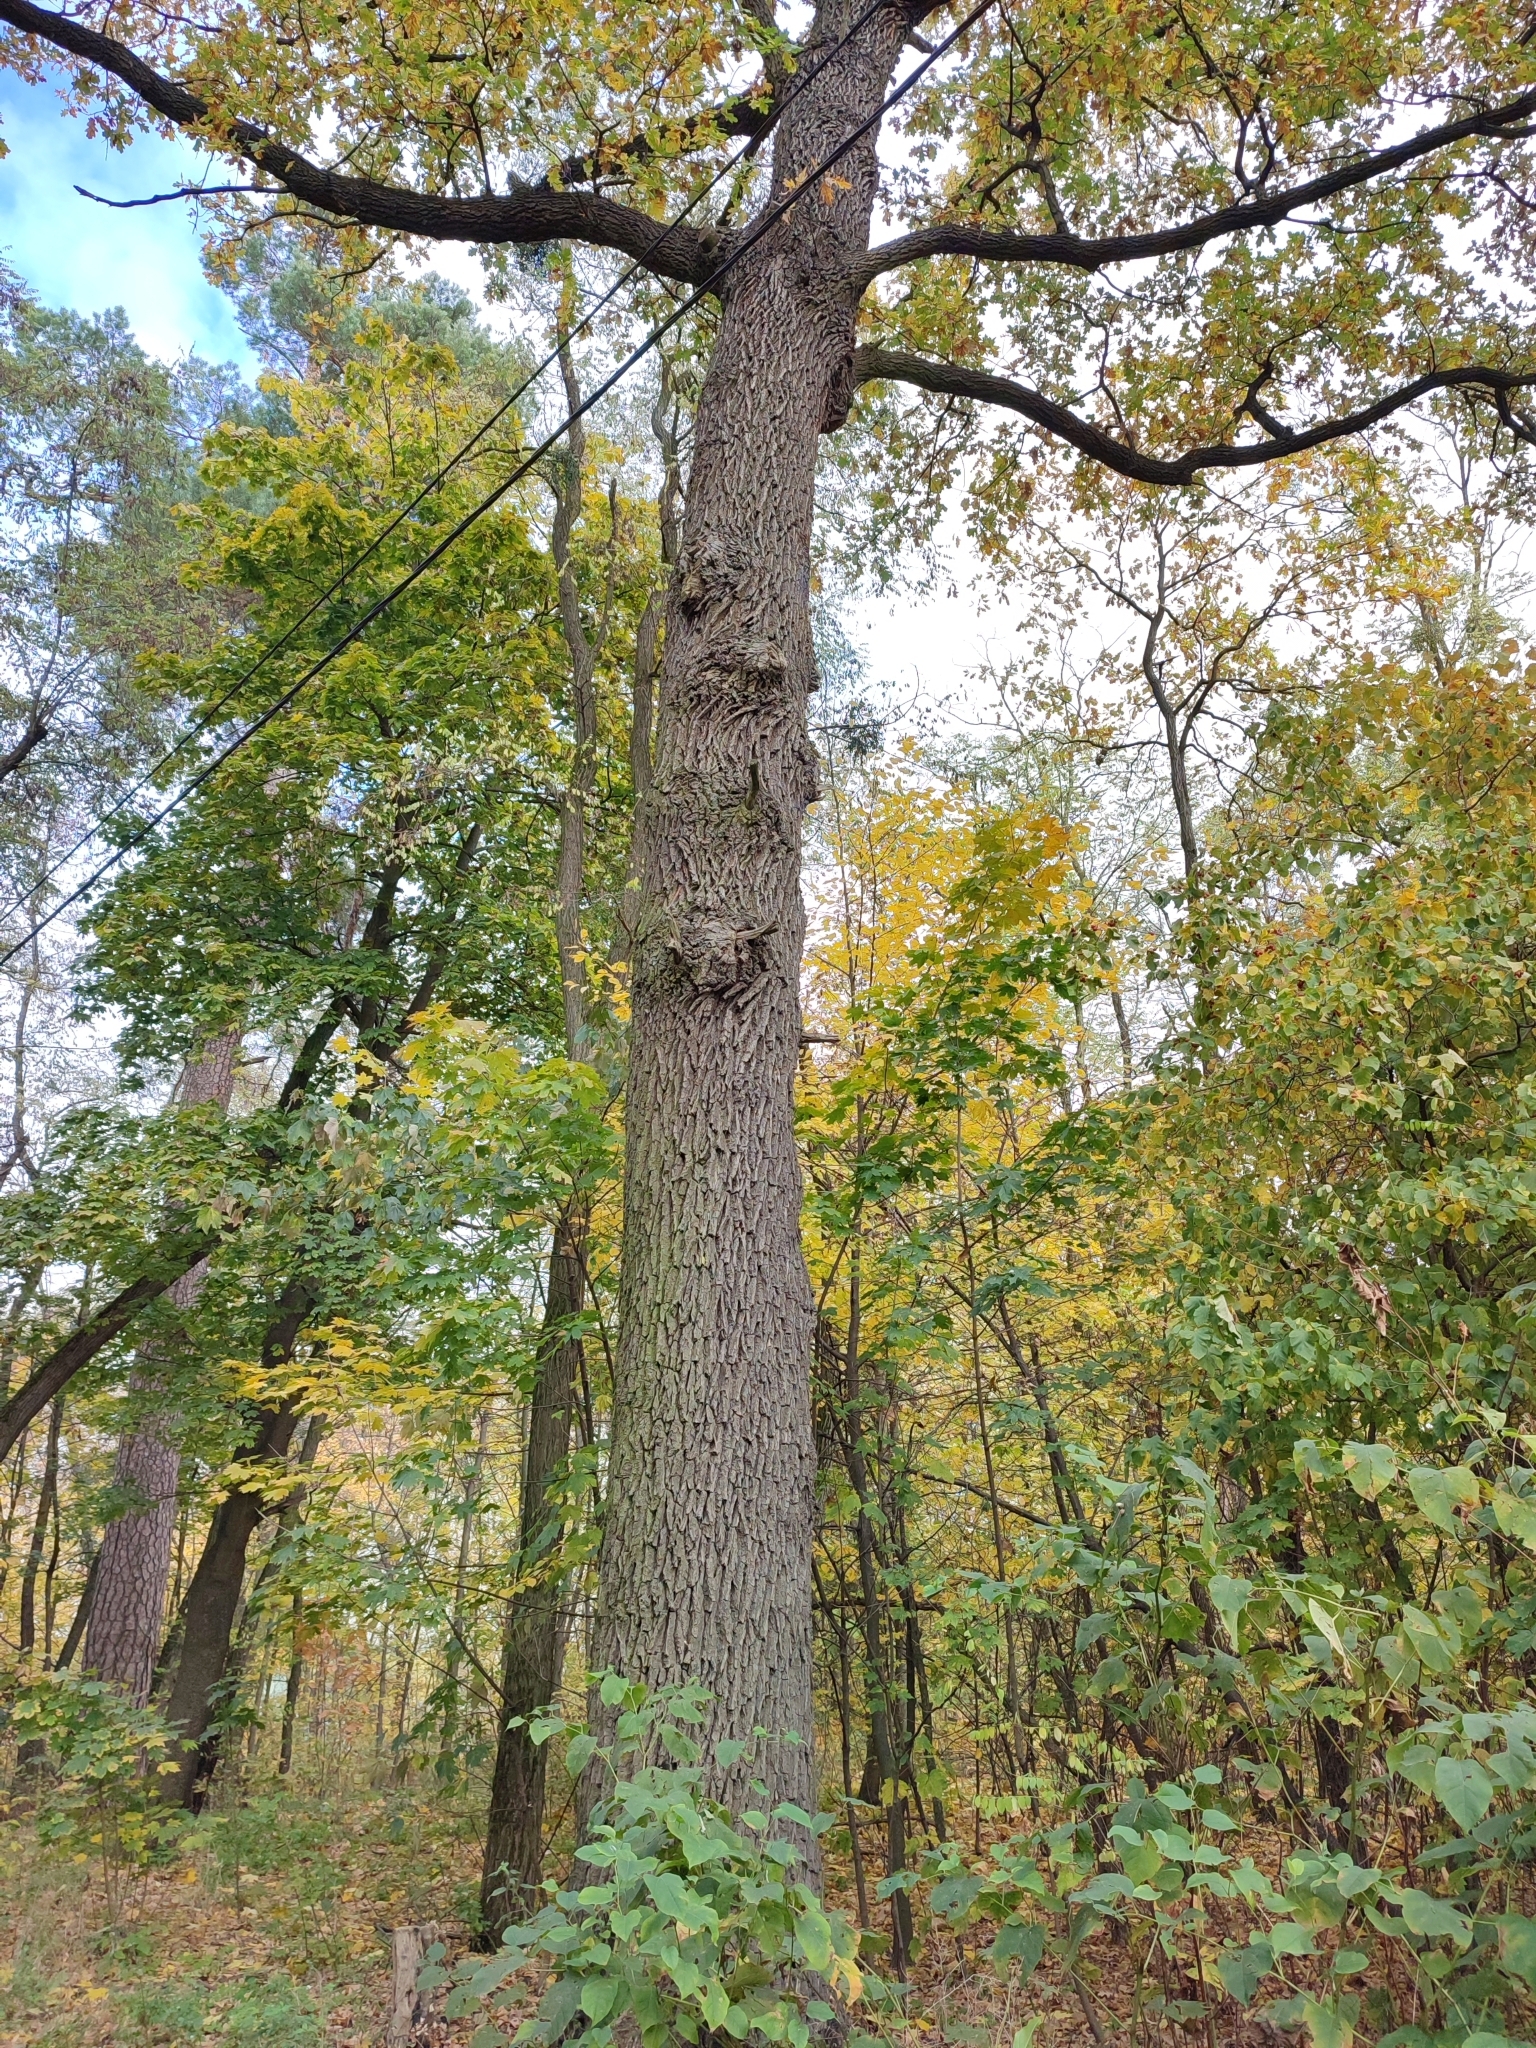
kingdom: Plantae
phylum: Tracheophyta
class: Magnoliopsida
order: Fagales
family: Fagaceae
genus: Quercus
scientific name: Quercus robur
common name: Pedunculate oak
